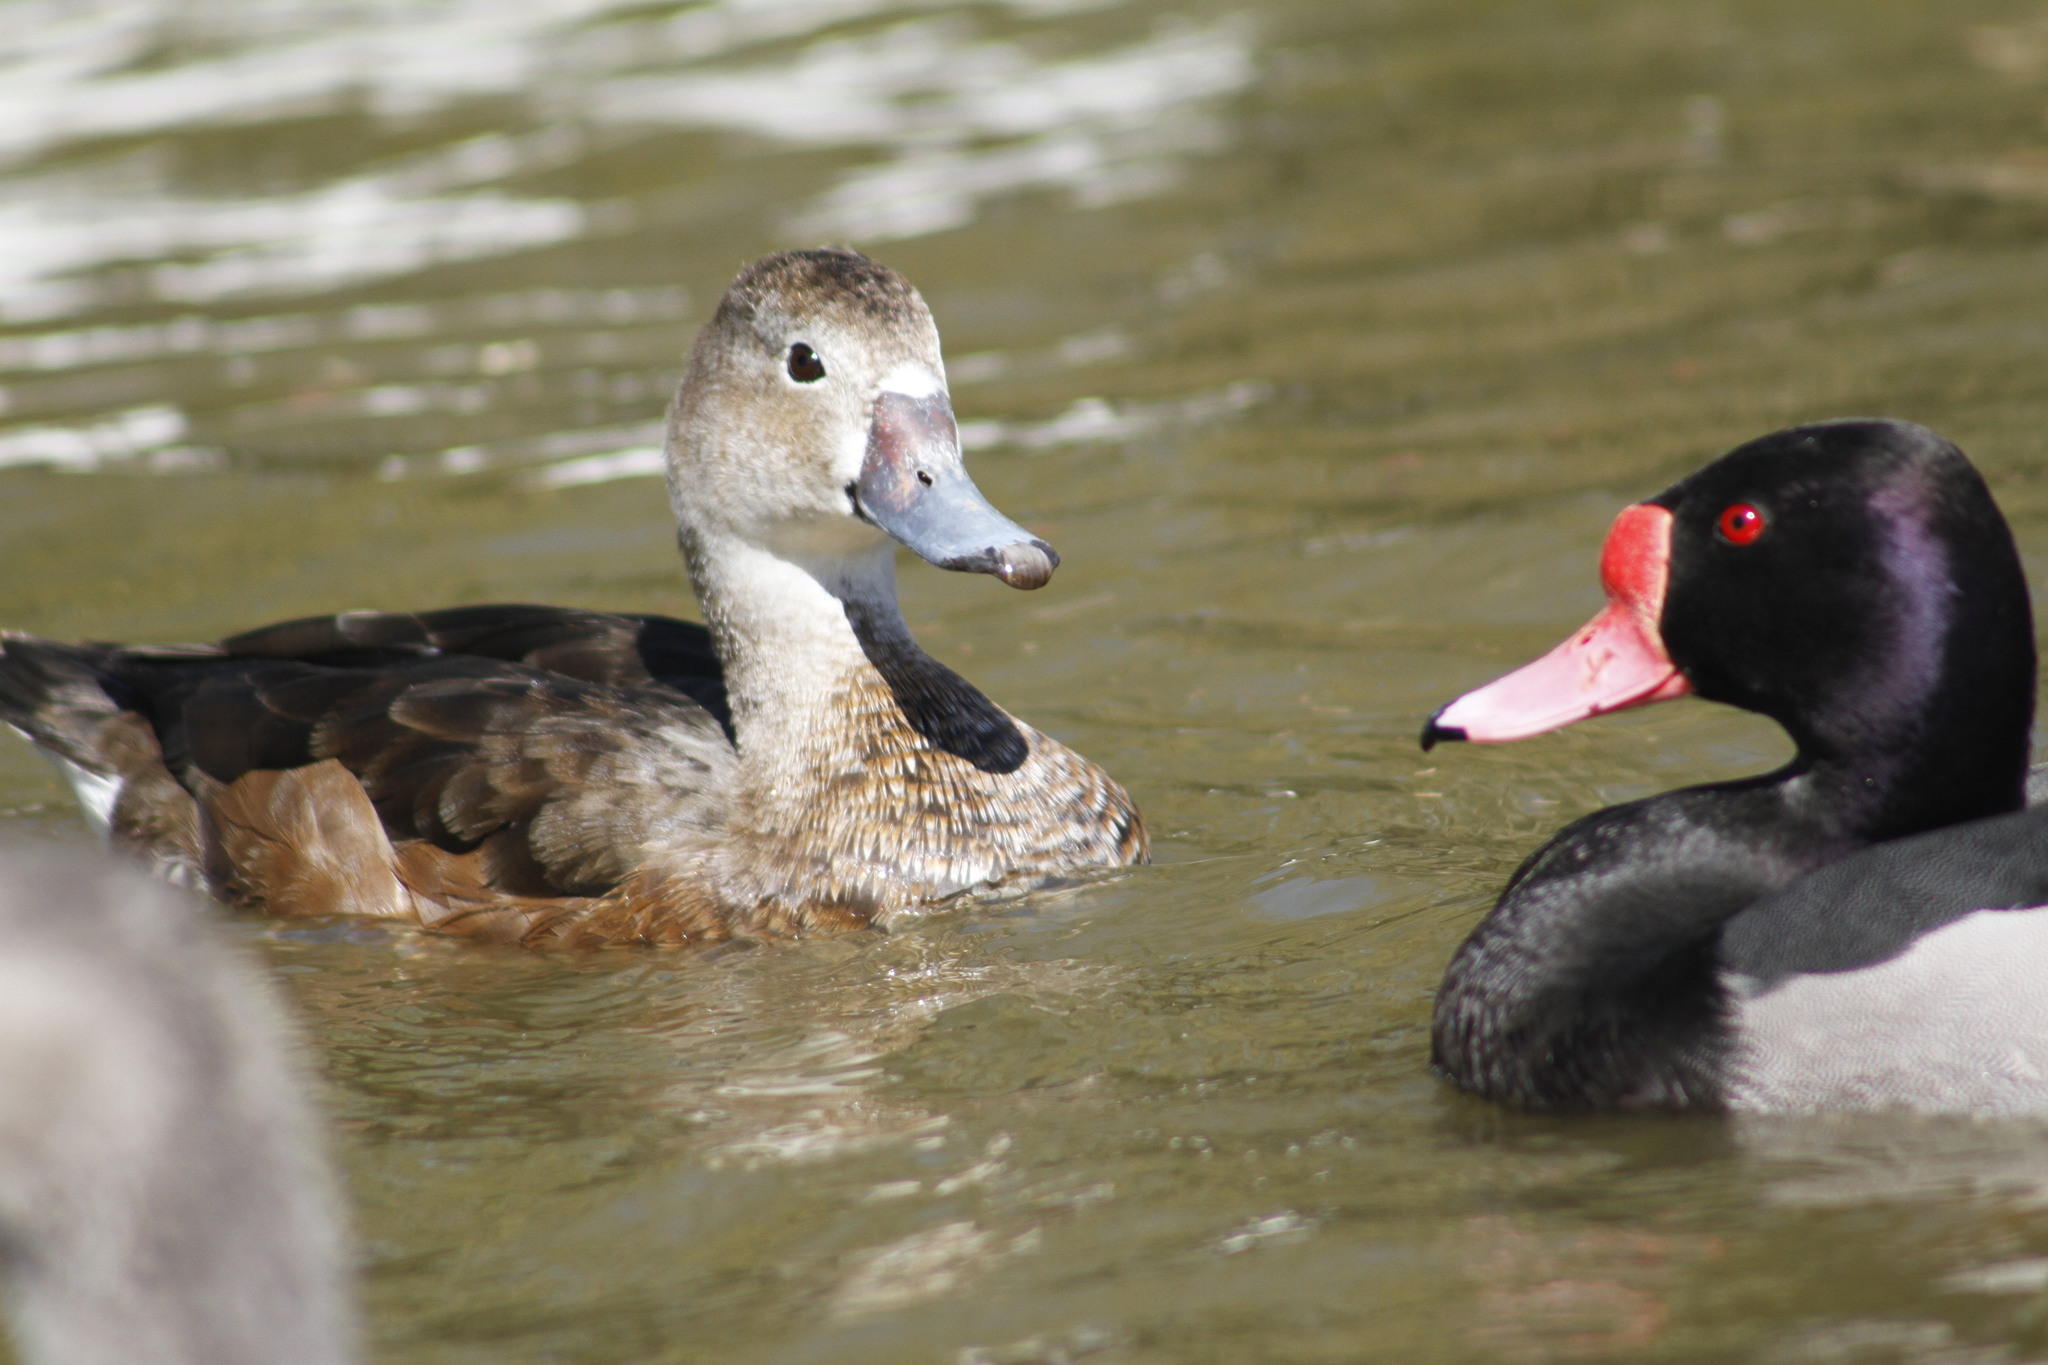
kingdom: Animalia
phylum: Chordata
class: Aves
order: Anseriformes
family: Anatidae
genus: Netta
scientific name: Netta peposaca
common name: Rosy-billed pochard
